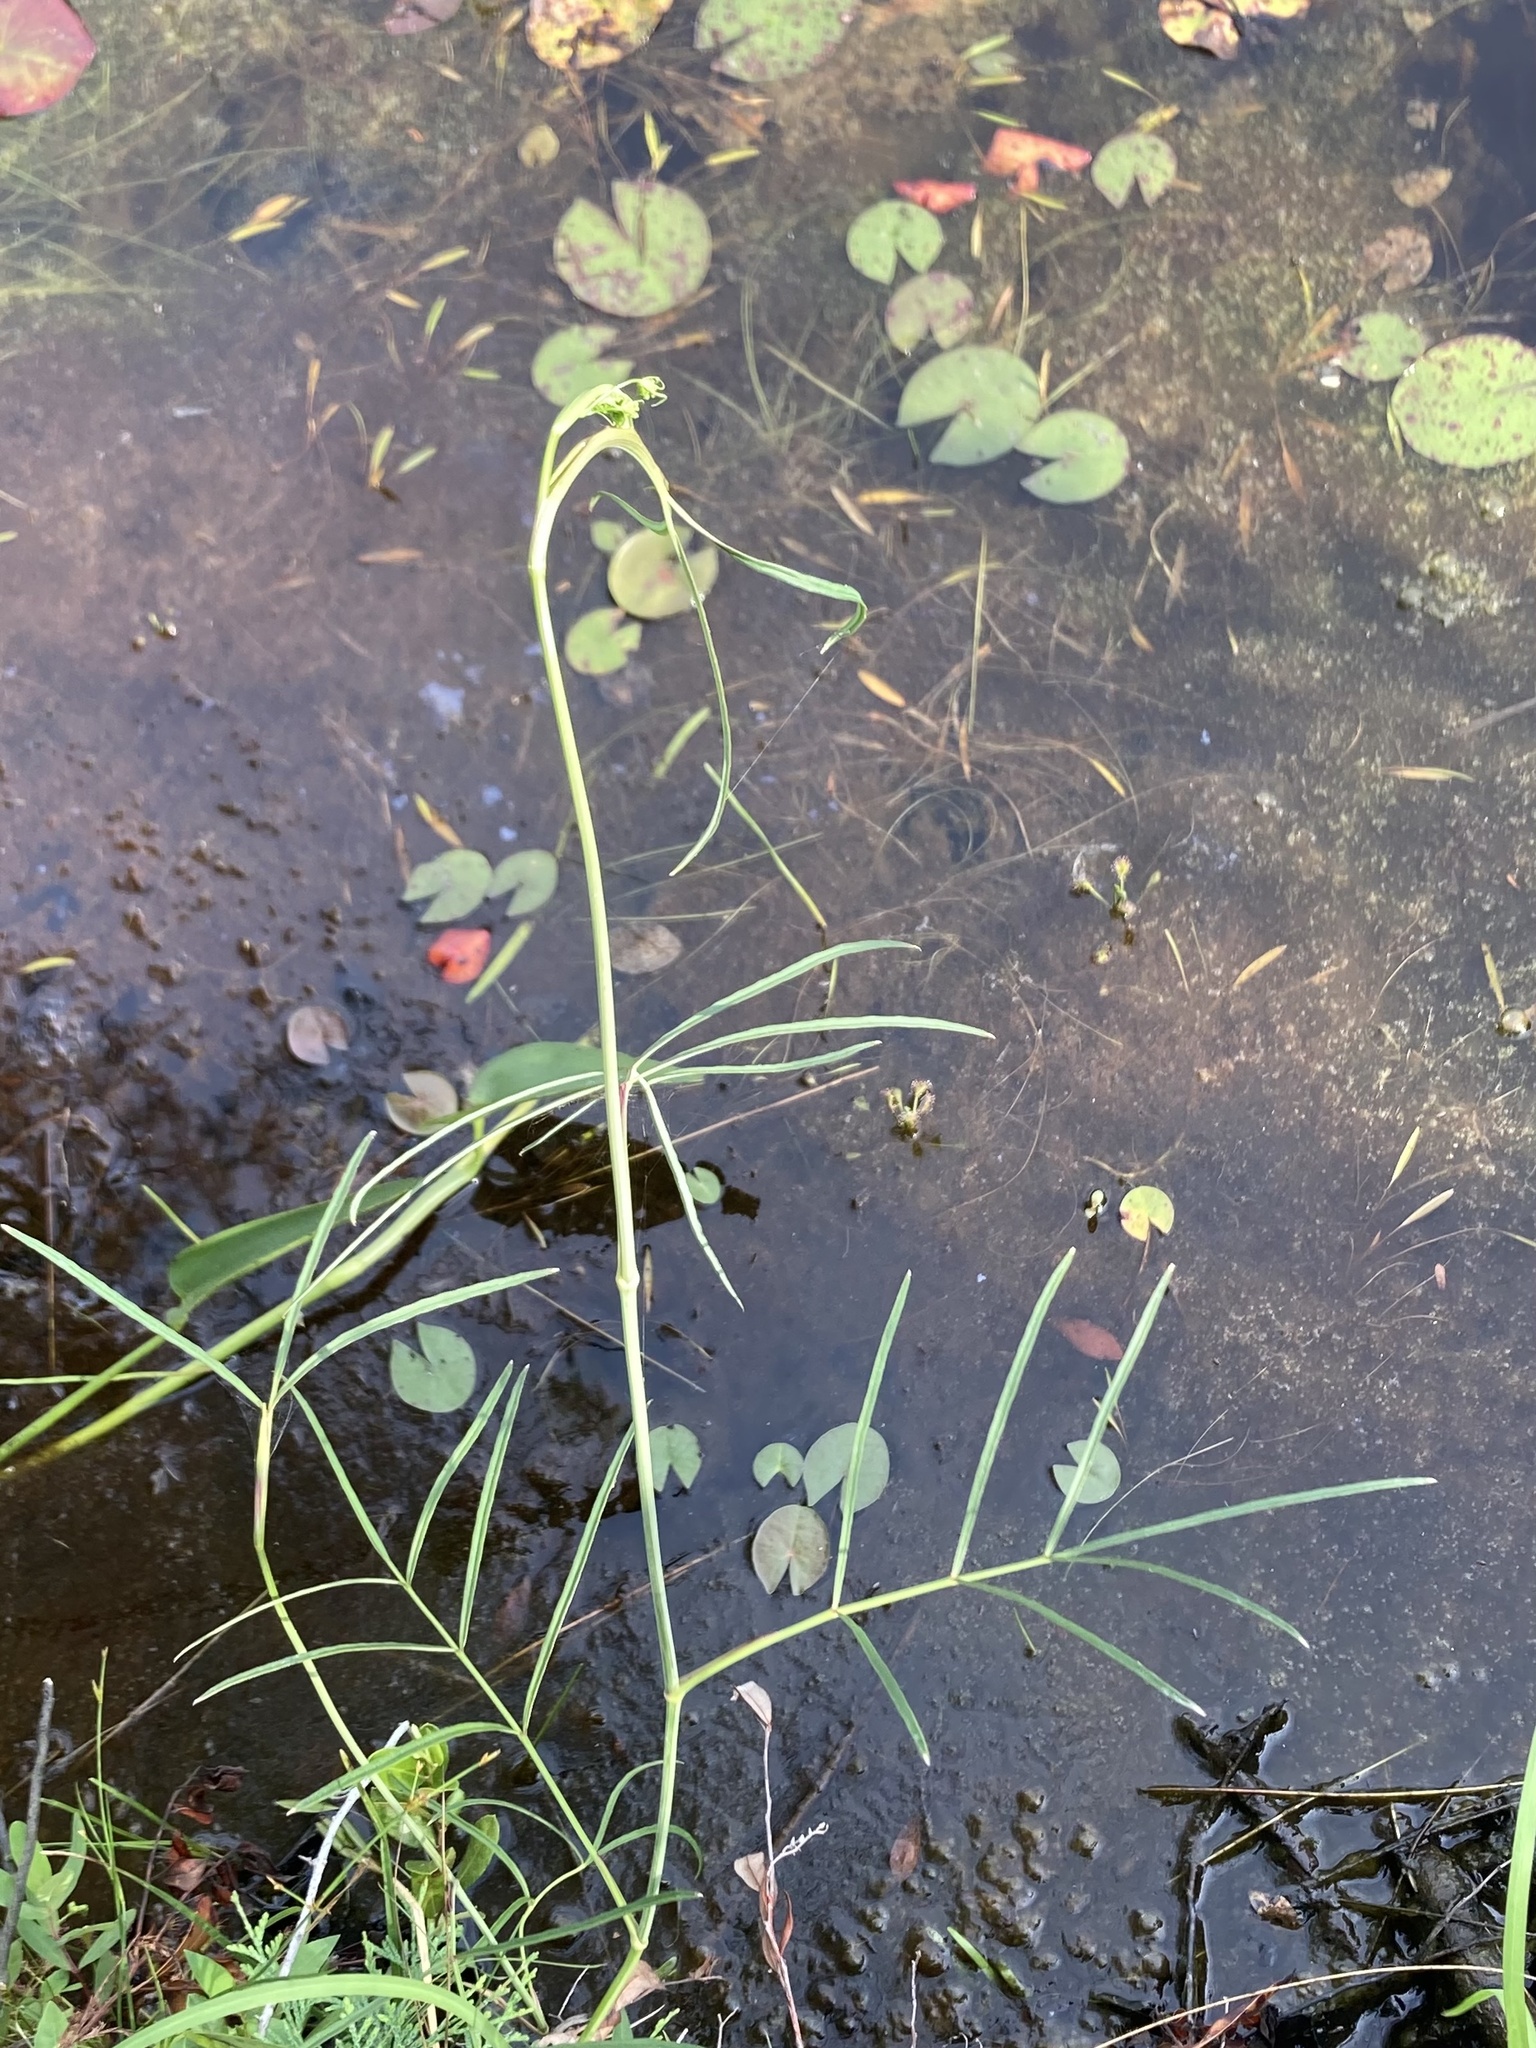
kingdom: Plantae
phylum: Tracheophyta
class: Magnoliopsida
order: Apiales
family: Apiaceae
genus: Oxypolis
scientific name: Oxypolis rigidior
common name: Cowbane
